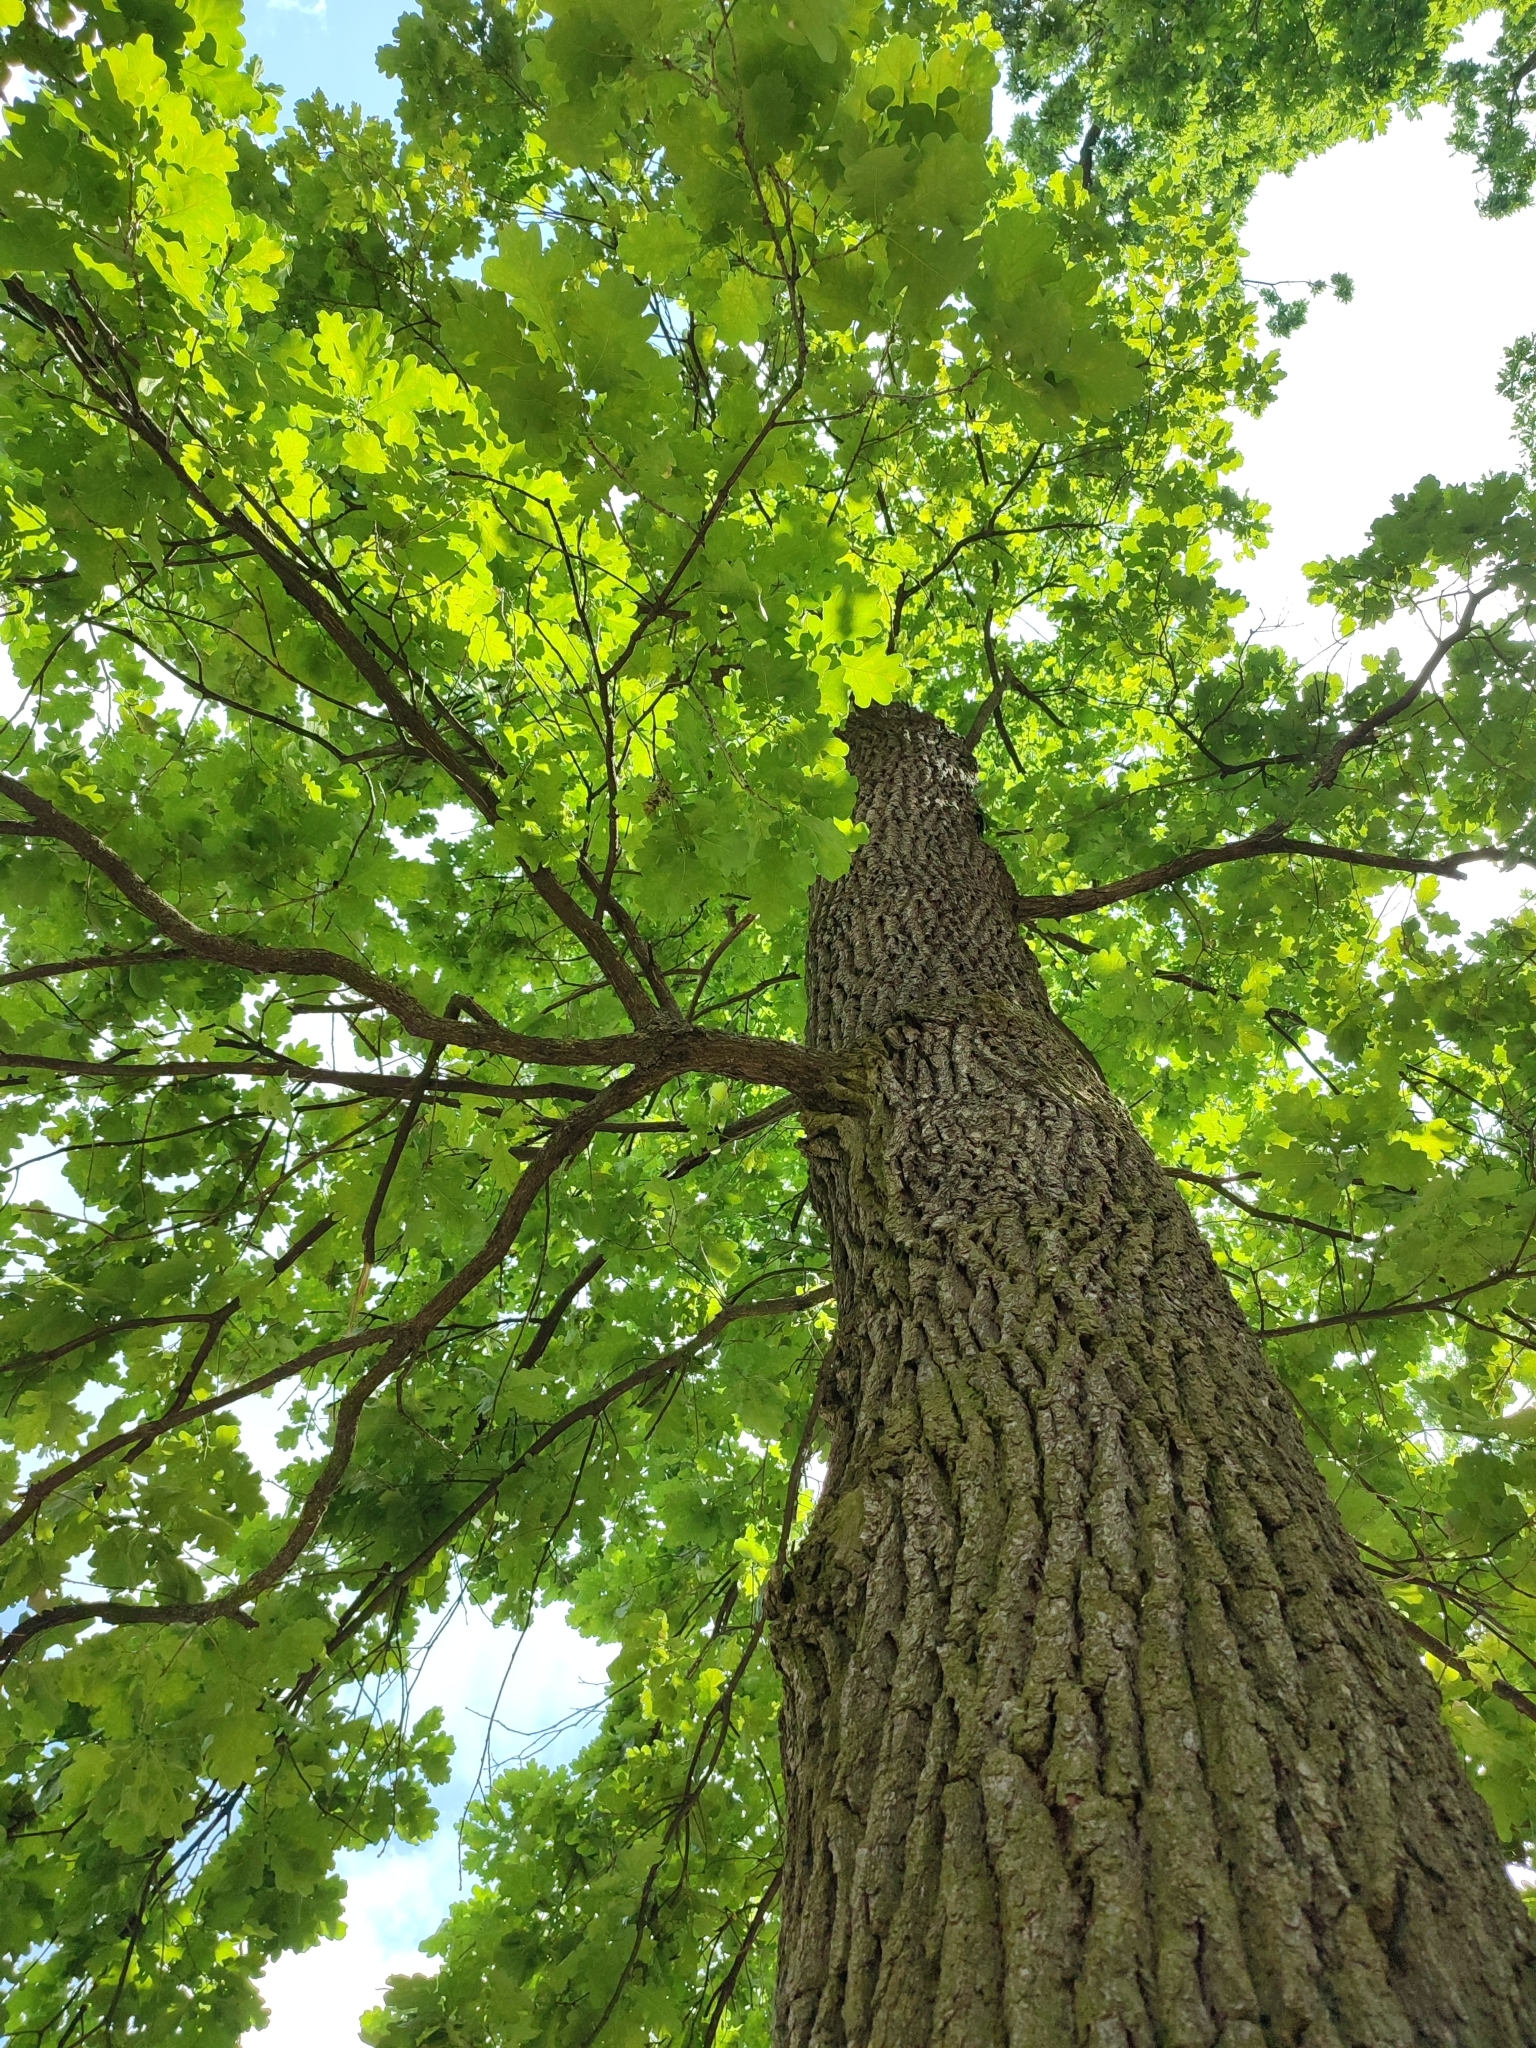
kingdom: Plantae
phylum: Tracheophyta
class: Magnoliopsida
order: Fagales
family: Fagaceae
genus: Quercus
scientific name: Quercus robur
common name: Pedunculate oak
